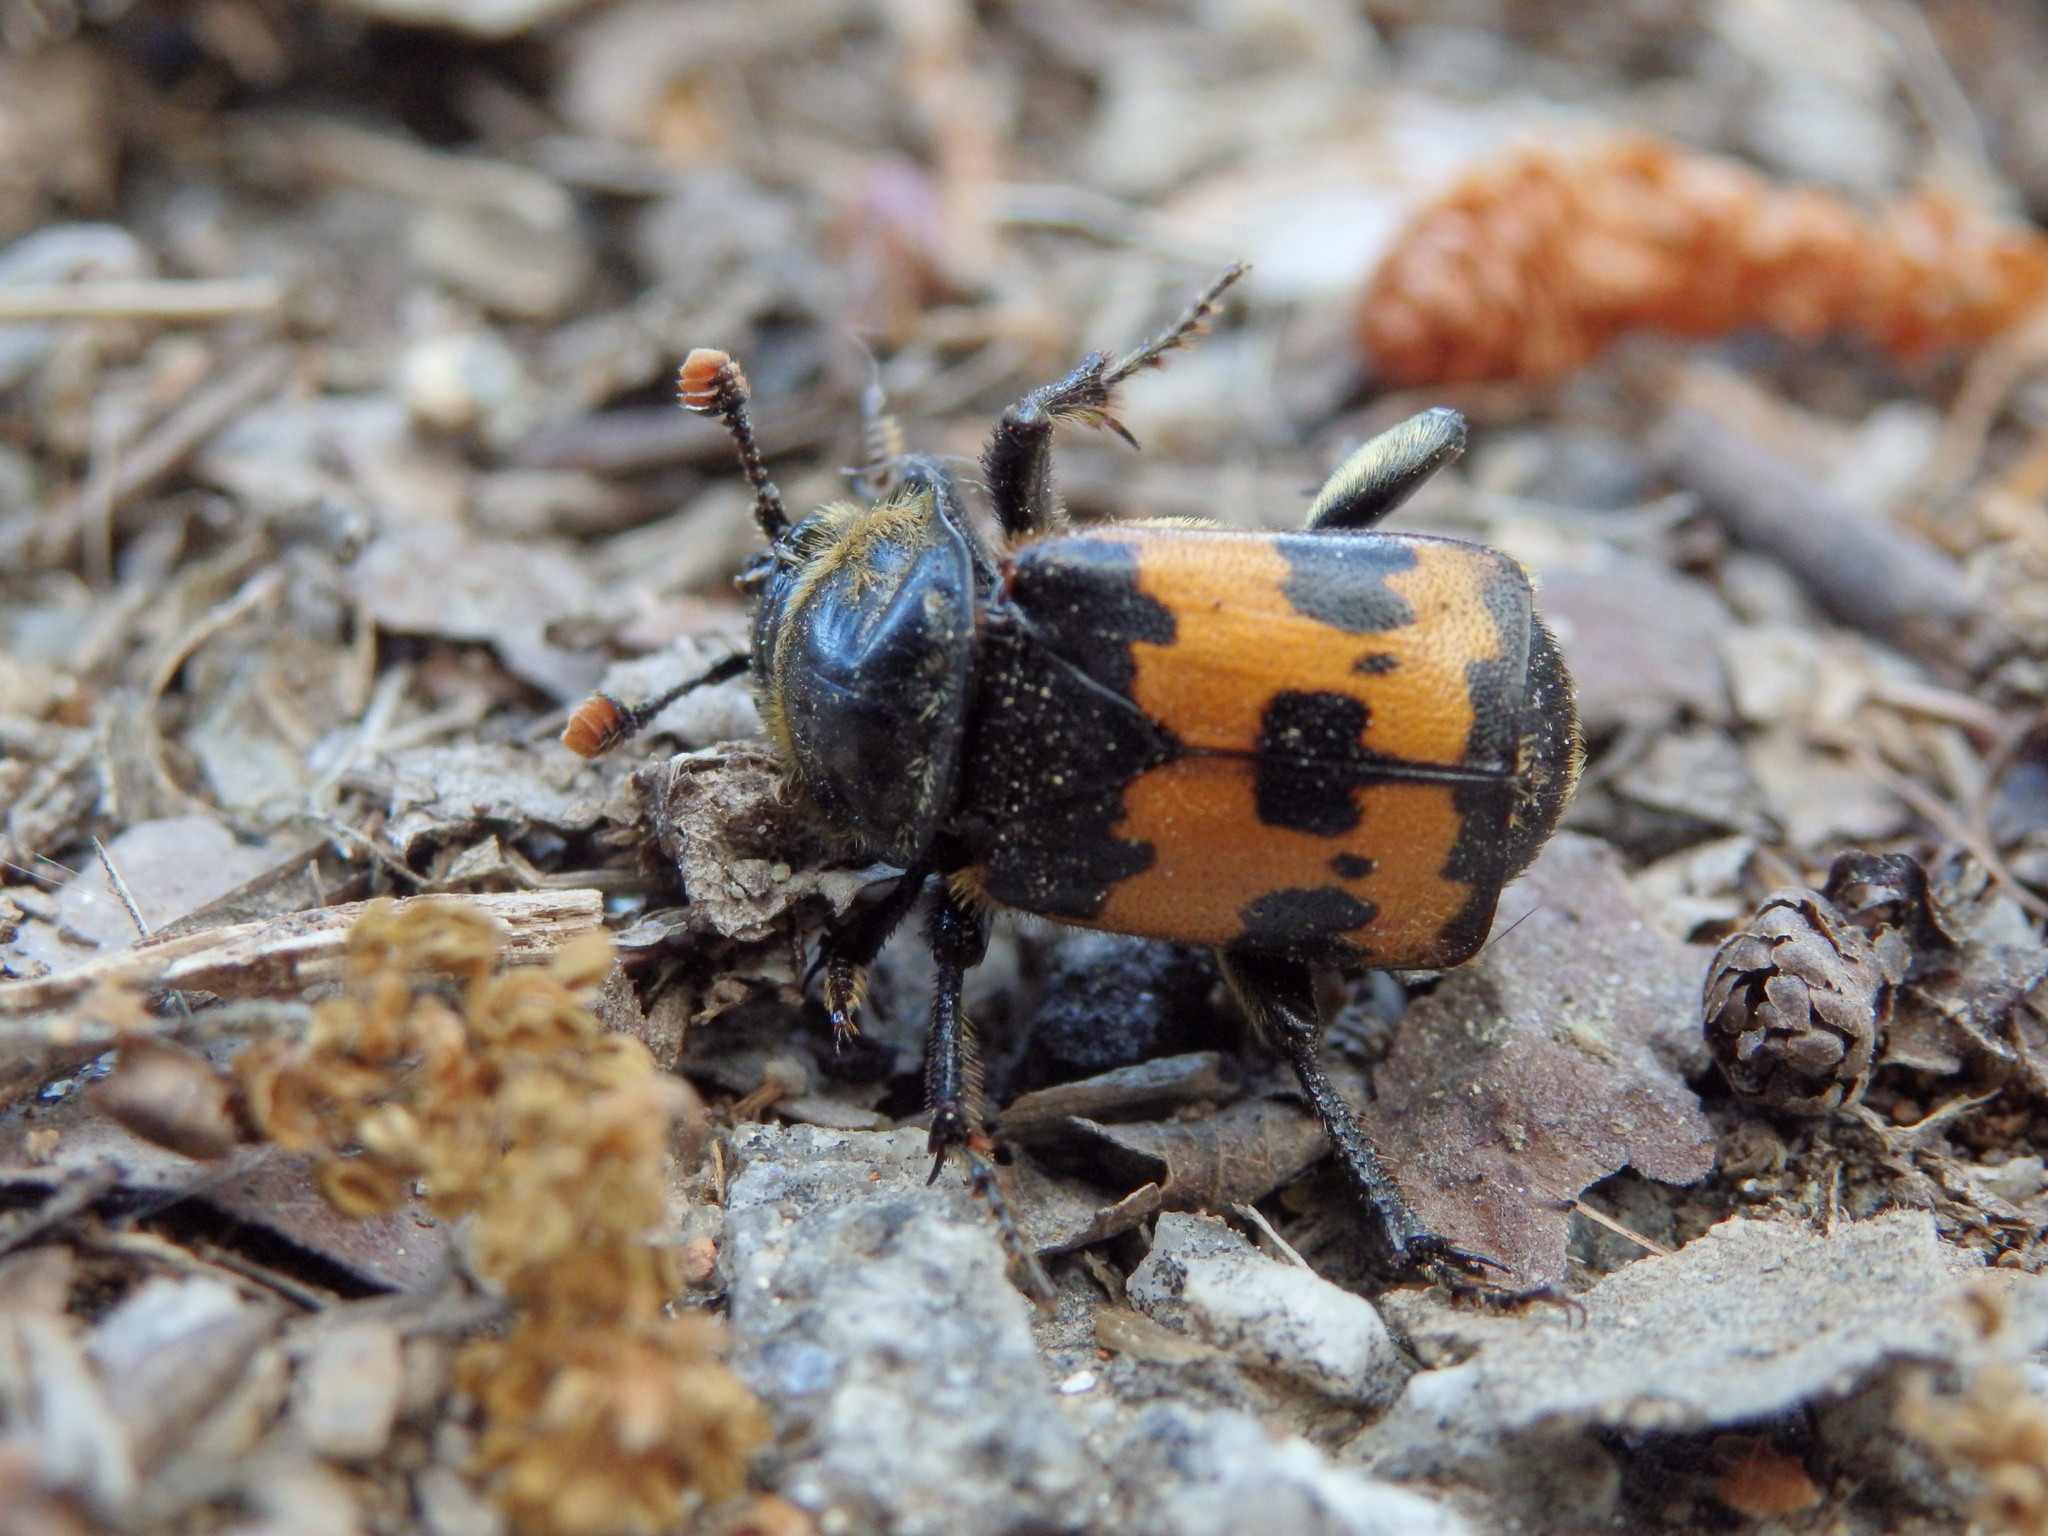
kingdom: Animalia
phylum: Arthropoda
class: Insecta
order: Coleoptera
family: Staphylinidae
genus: Nicrophorus
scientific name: Nicrophorus vestigator
